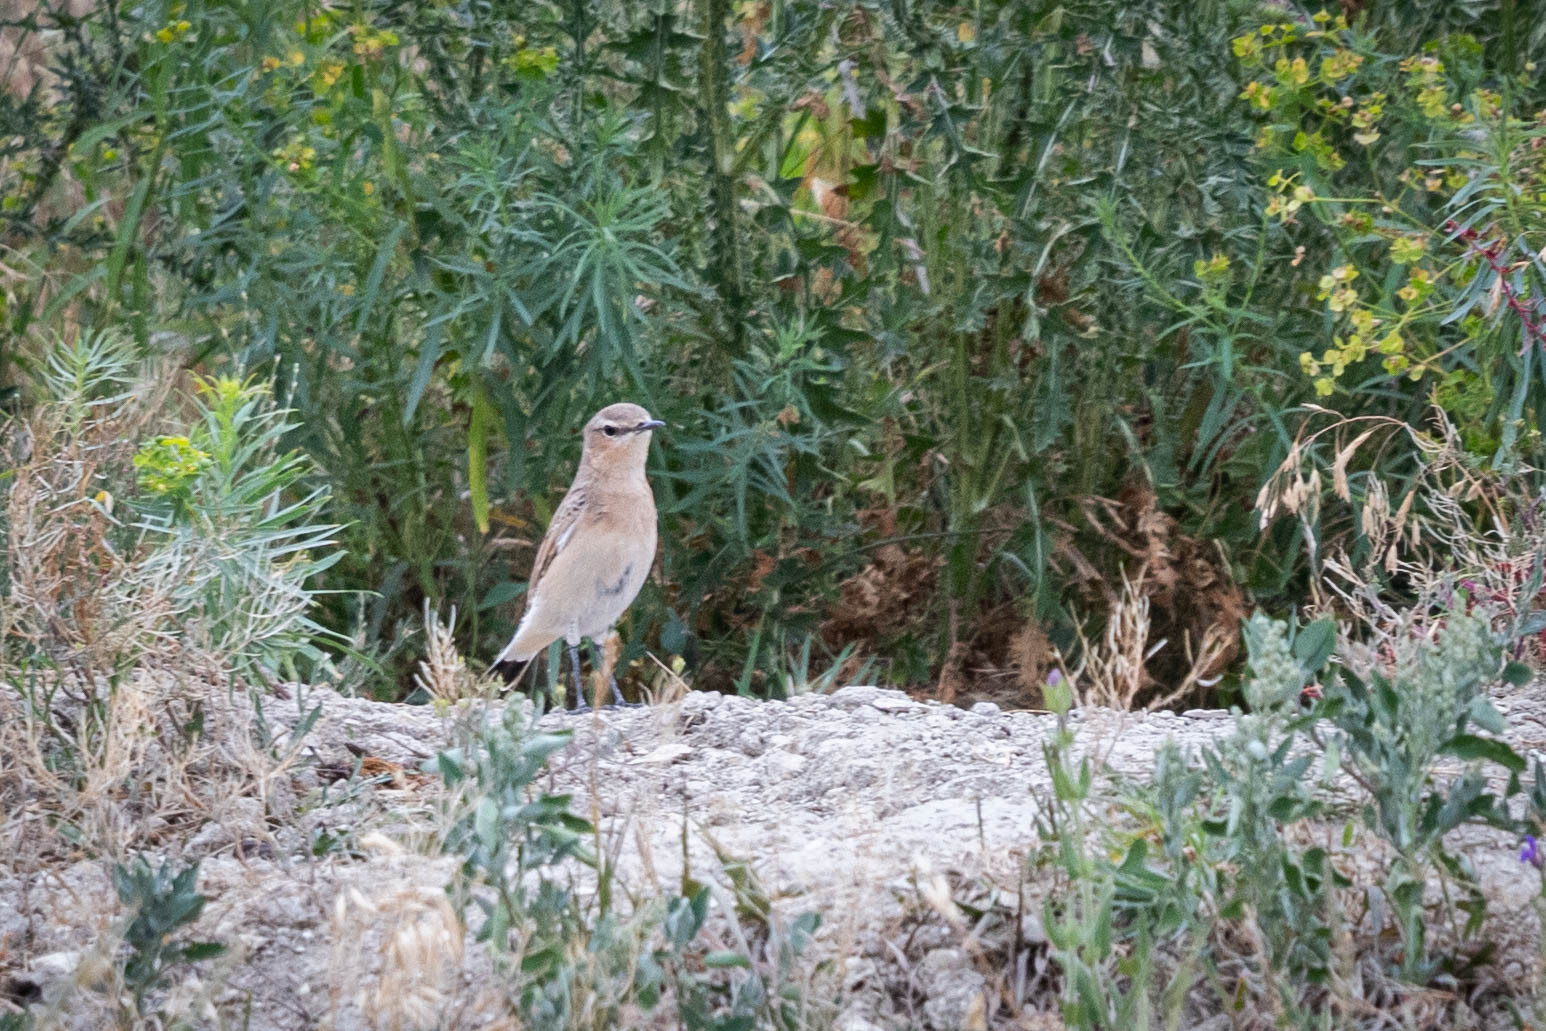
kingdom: Animalia
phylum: Chordata
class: Aves
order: Passeriformes
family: Muscicapidae
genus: Oenanthe
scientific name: Oenanthe oenanthe
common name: Northern wheatear
